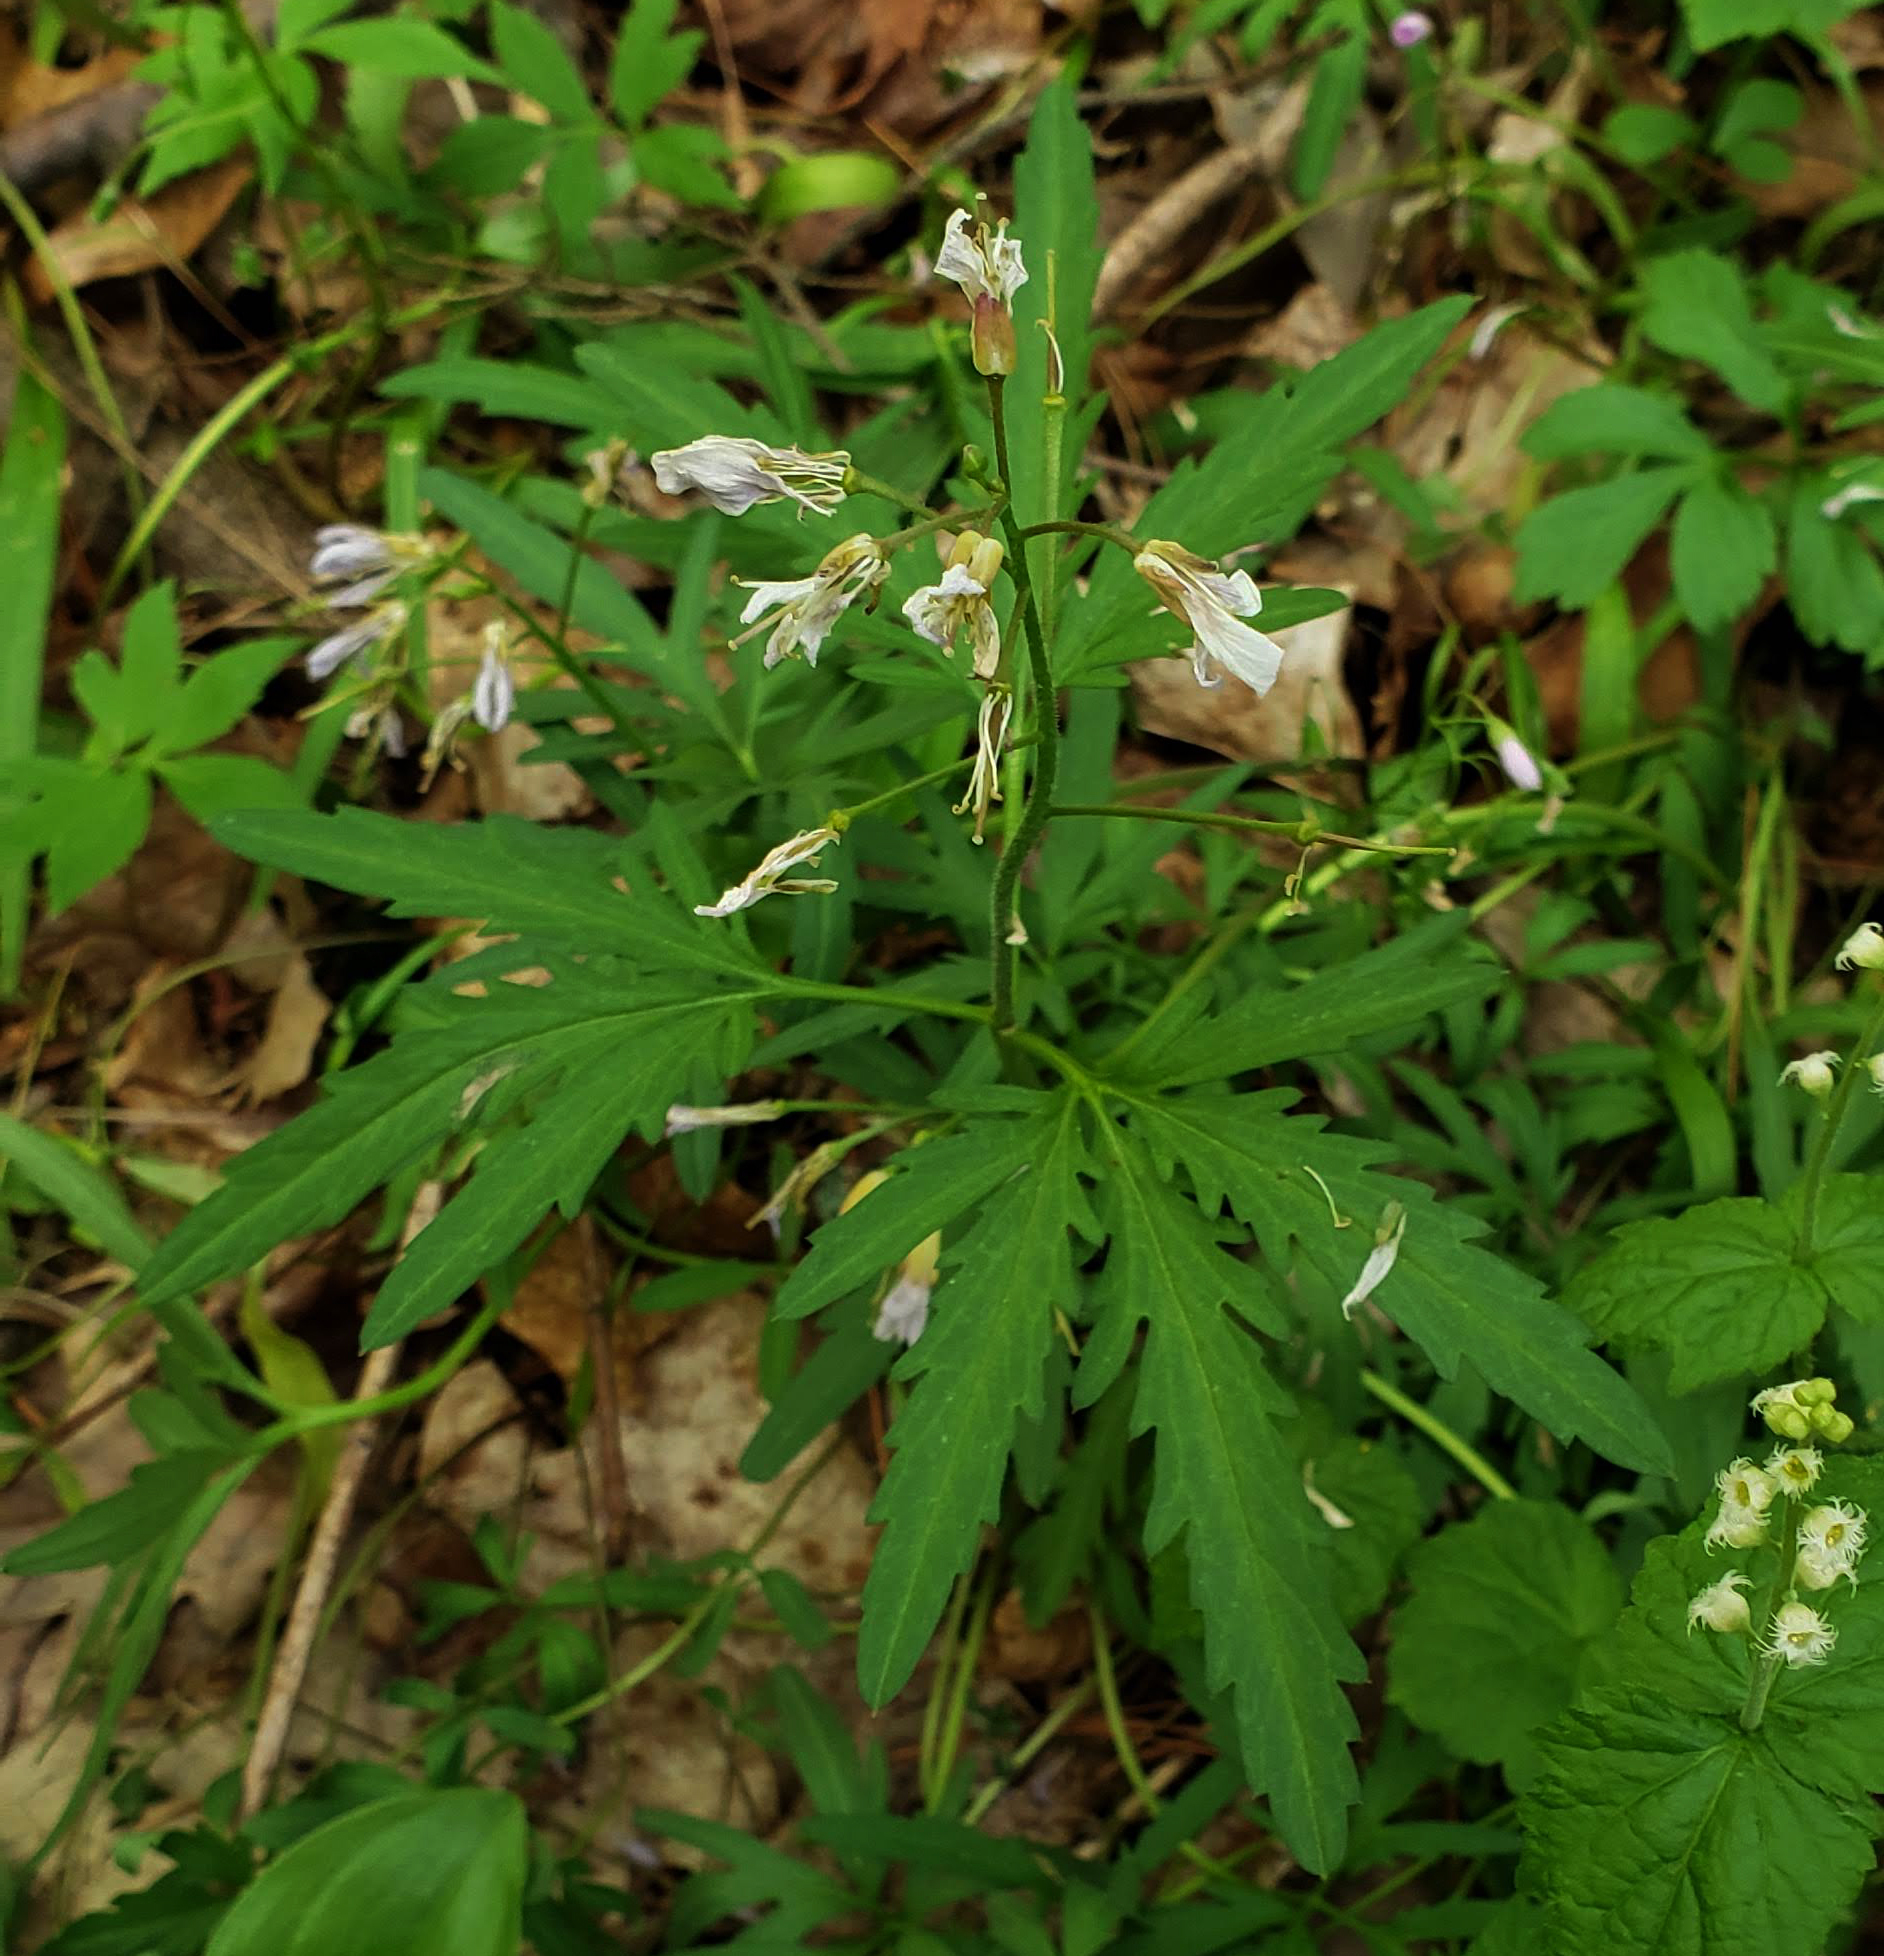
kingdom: Plantae
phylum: Tracheophyta
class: Magnoliopsida
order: Brassicales
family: Brassicaceae
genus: Cardamine
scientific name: Cardamine concatenata
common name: Cut-leaf toothcup
